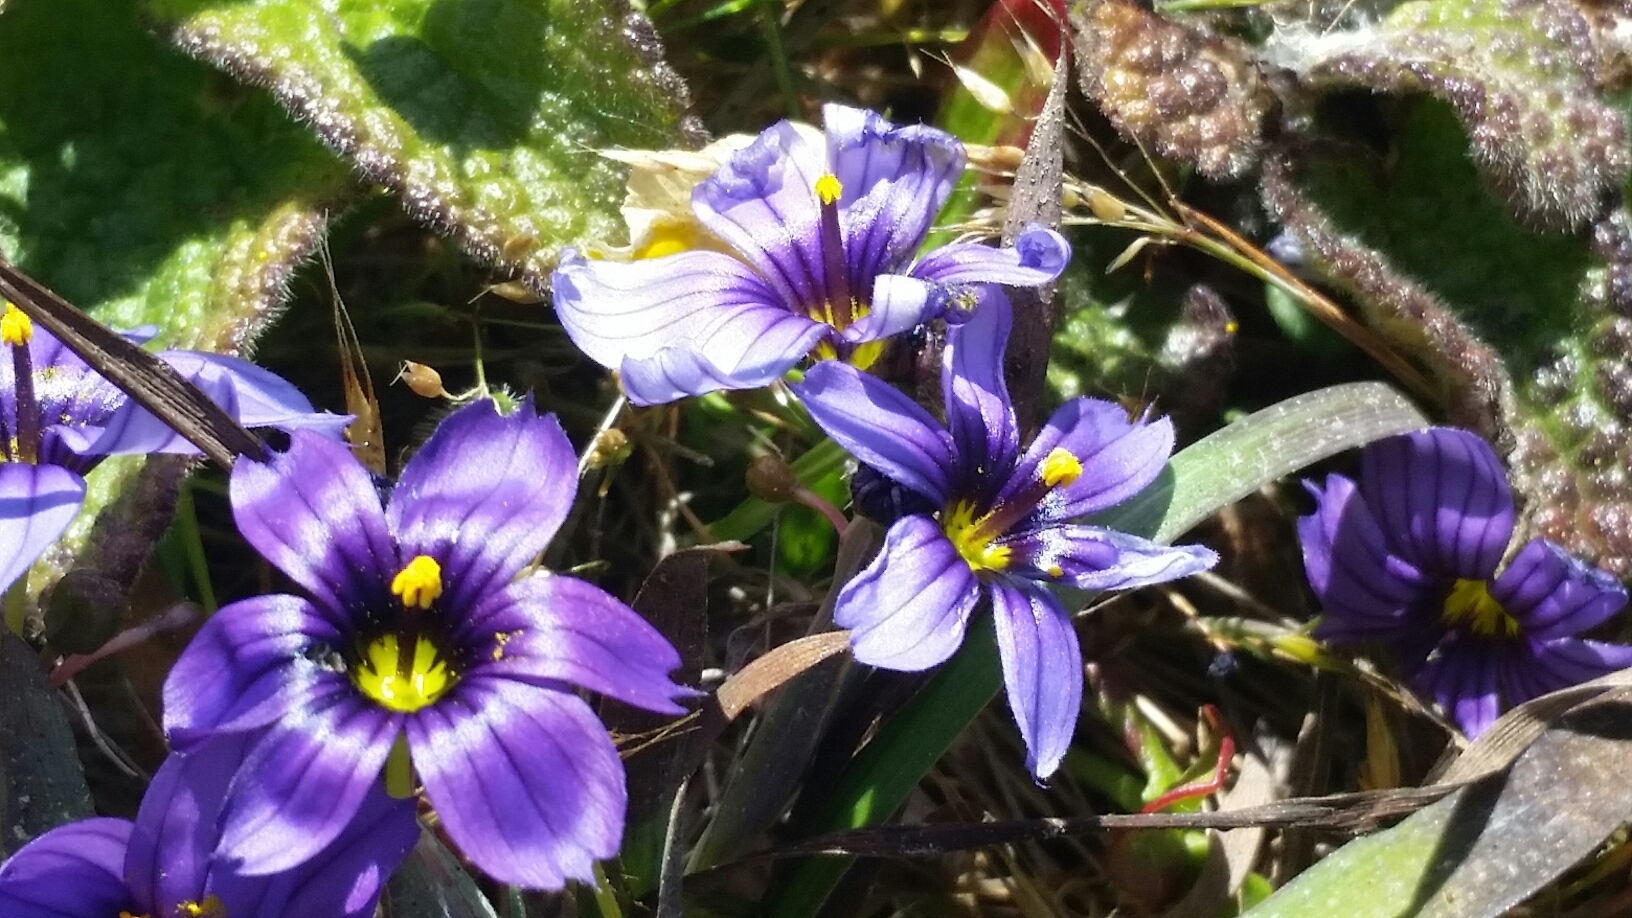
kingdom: Plantae
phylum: Tracheophyta
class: Liliopsida
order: Asparagales
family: Iridaceae
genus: Sisyrinchium
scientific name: Sisyrinchium bellum
